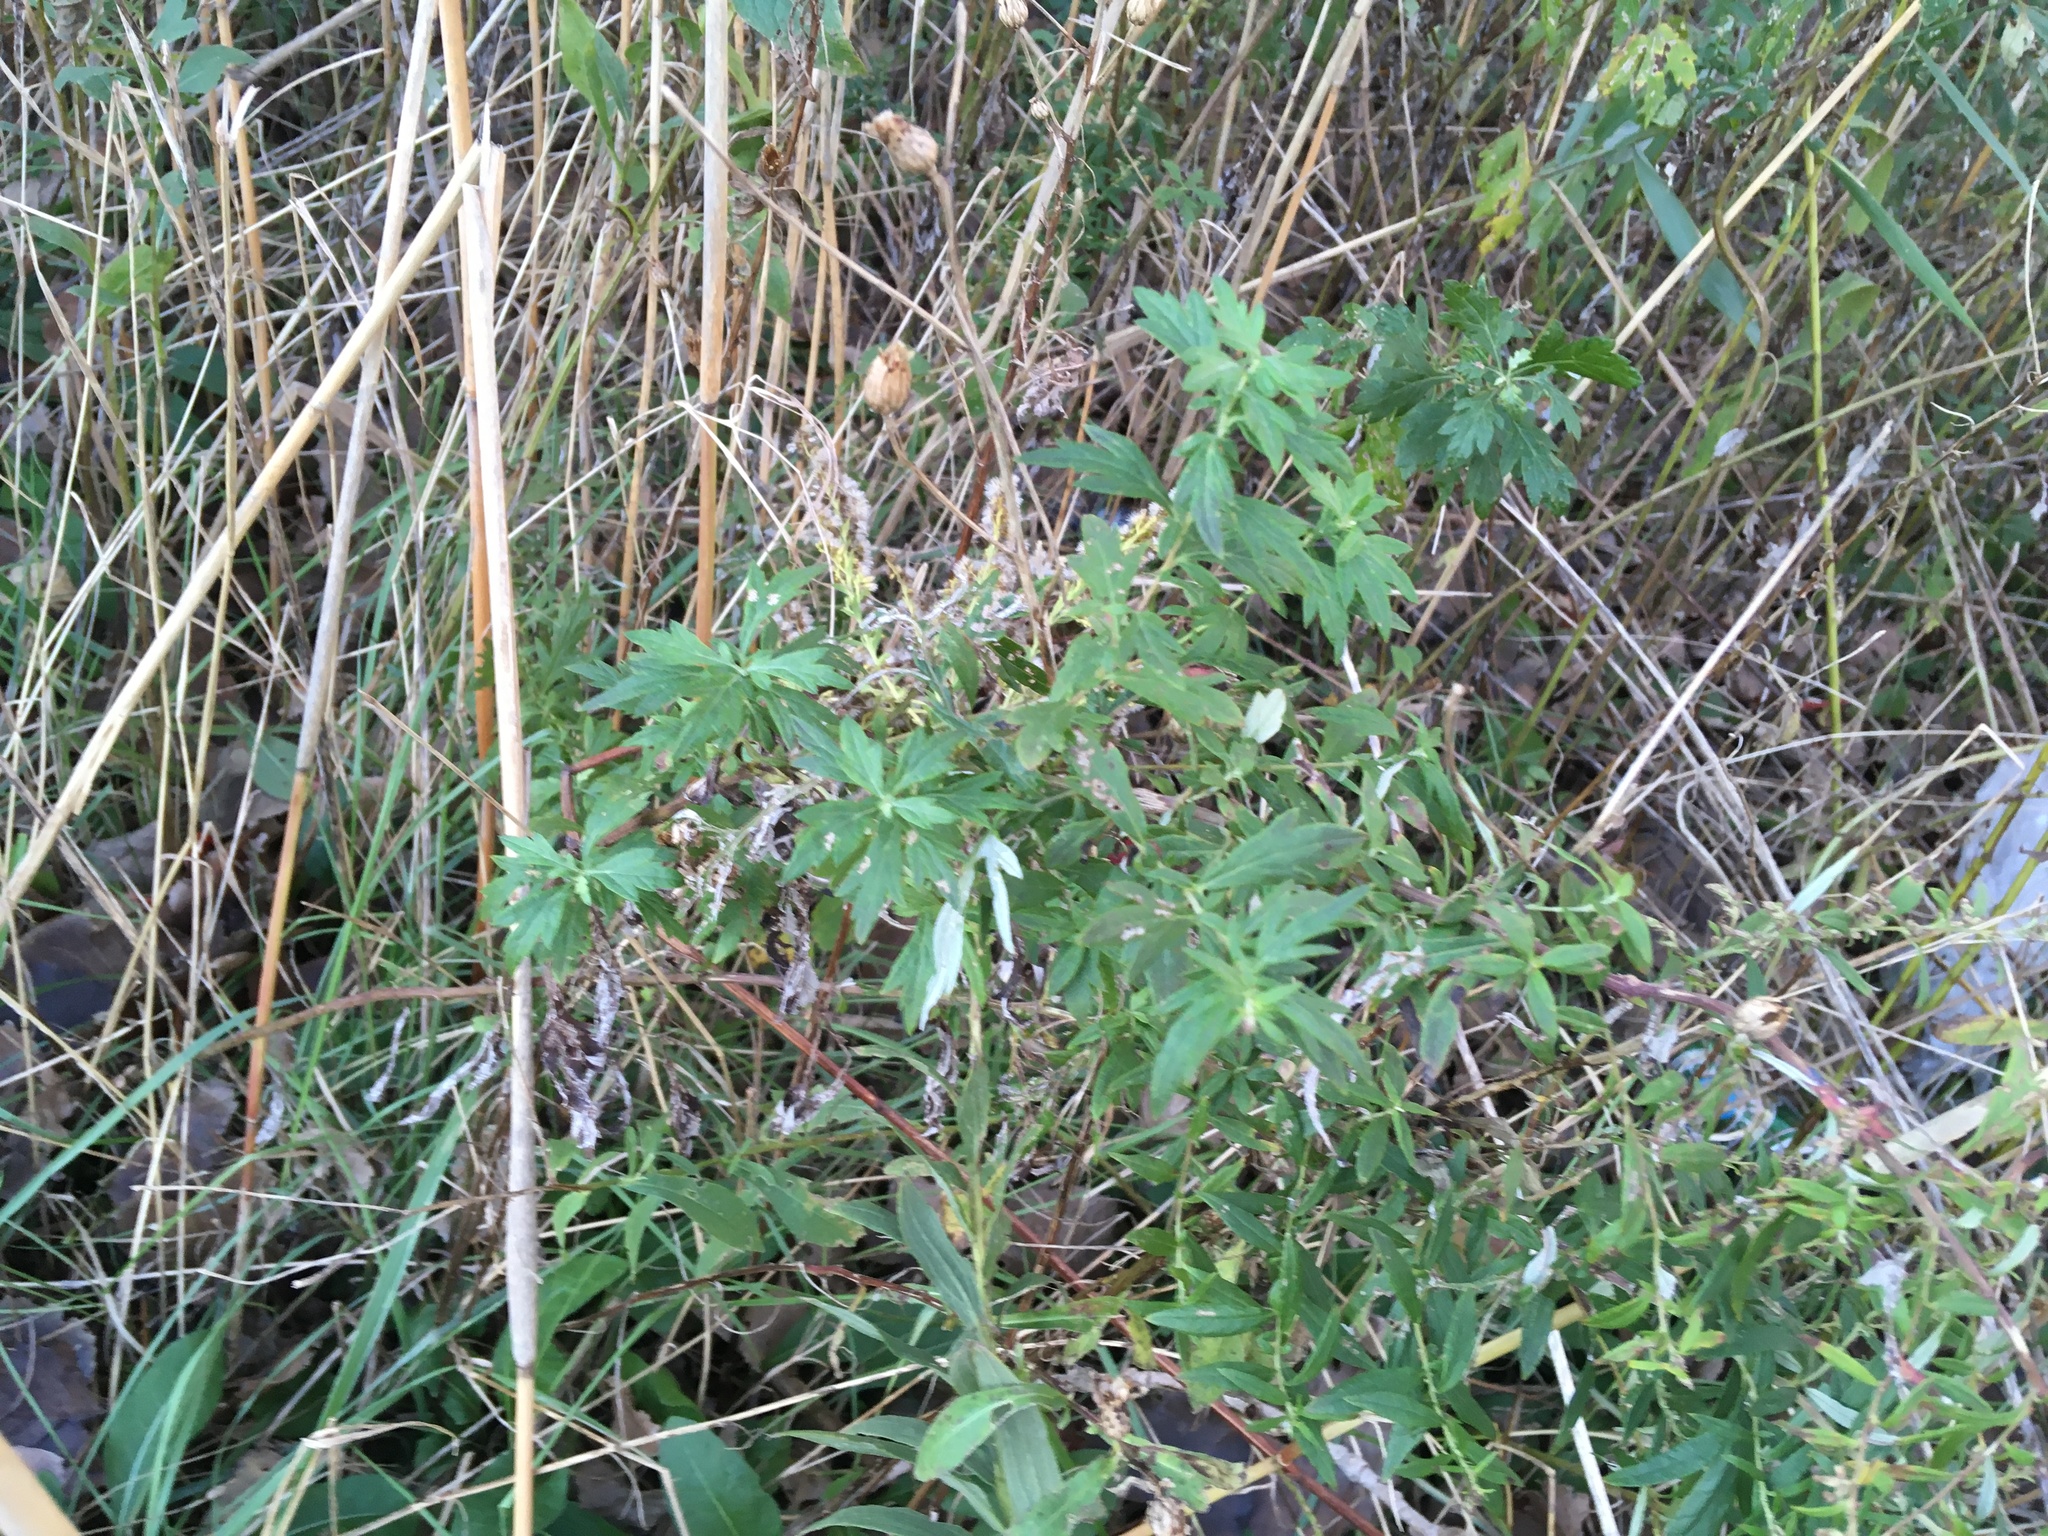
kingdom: Plantae
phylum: Tracheophyta
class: Magnoliopsida
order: Asterales
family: Asteraceae
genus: Artemisia
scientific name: Artemisia vulgaris
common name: Mugwort
